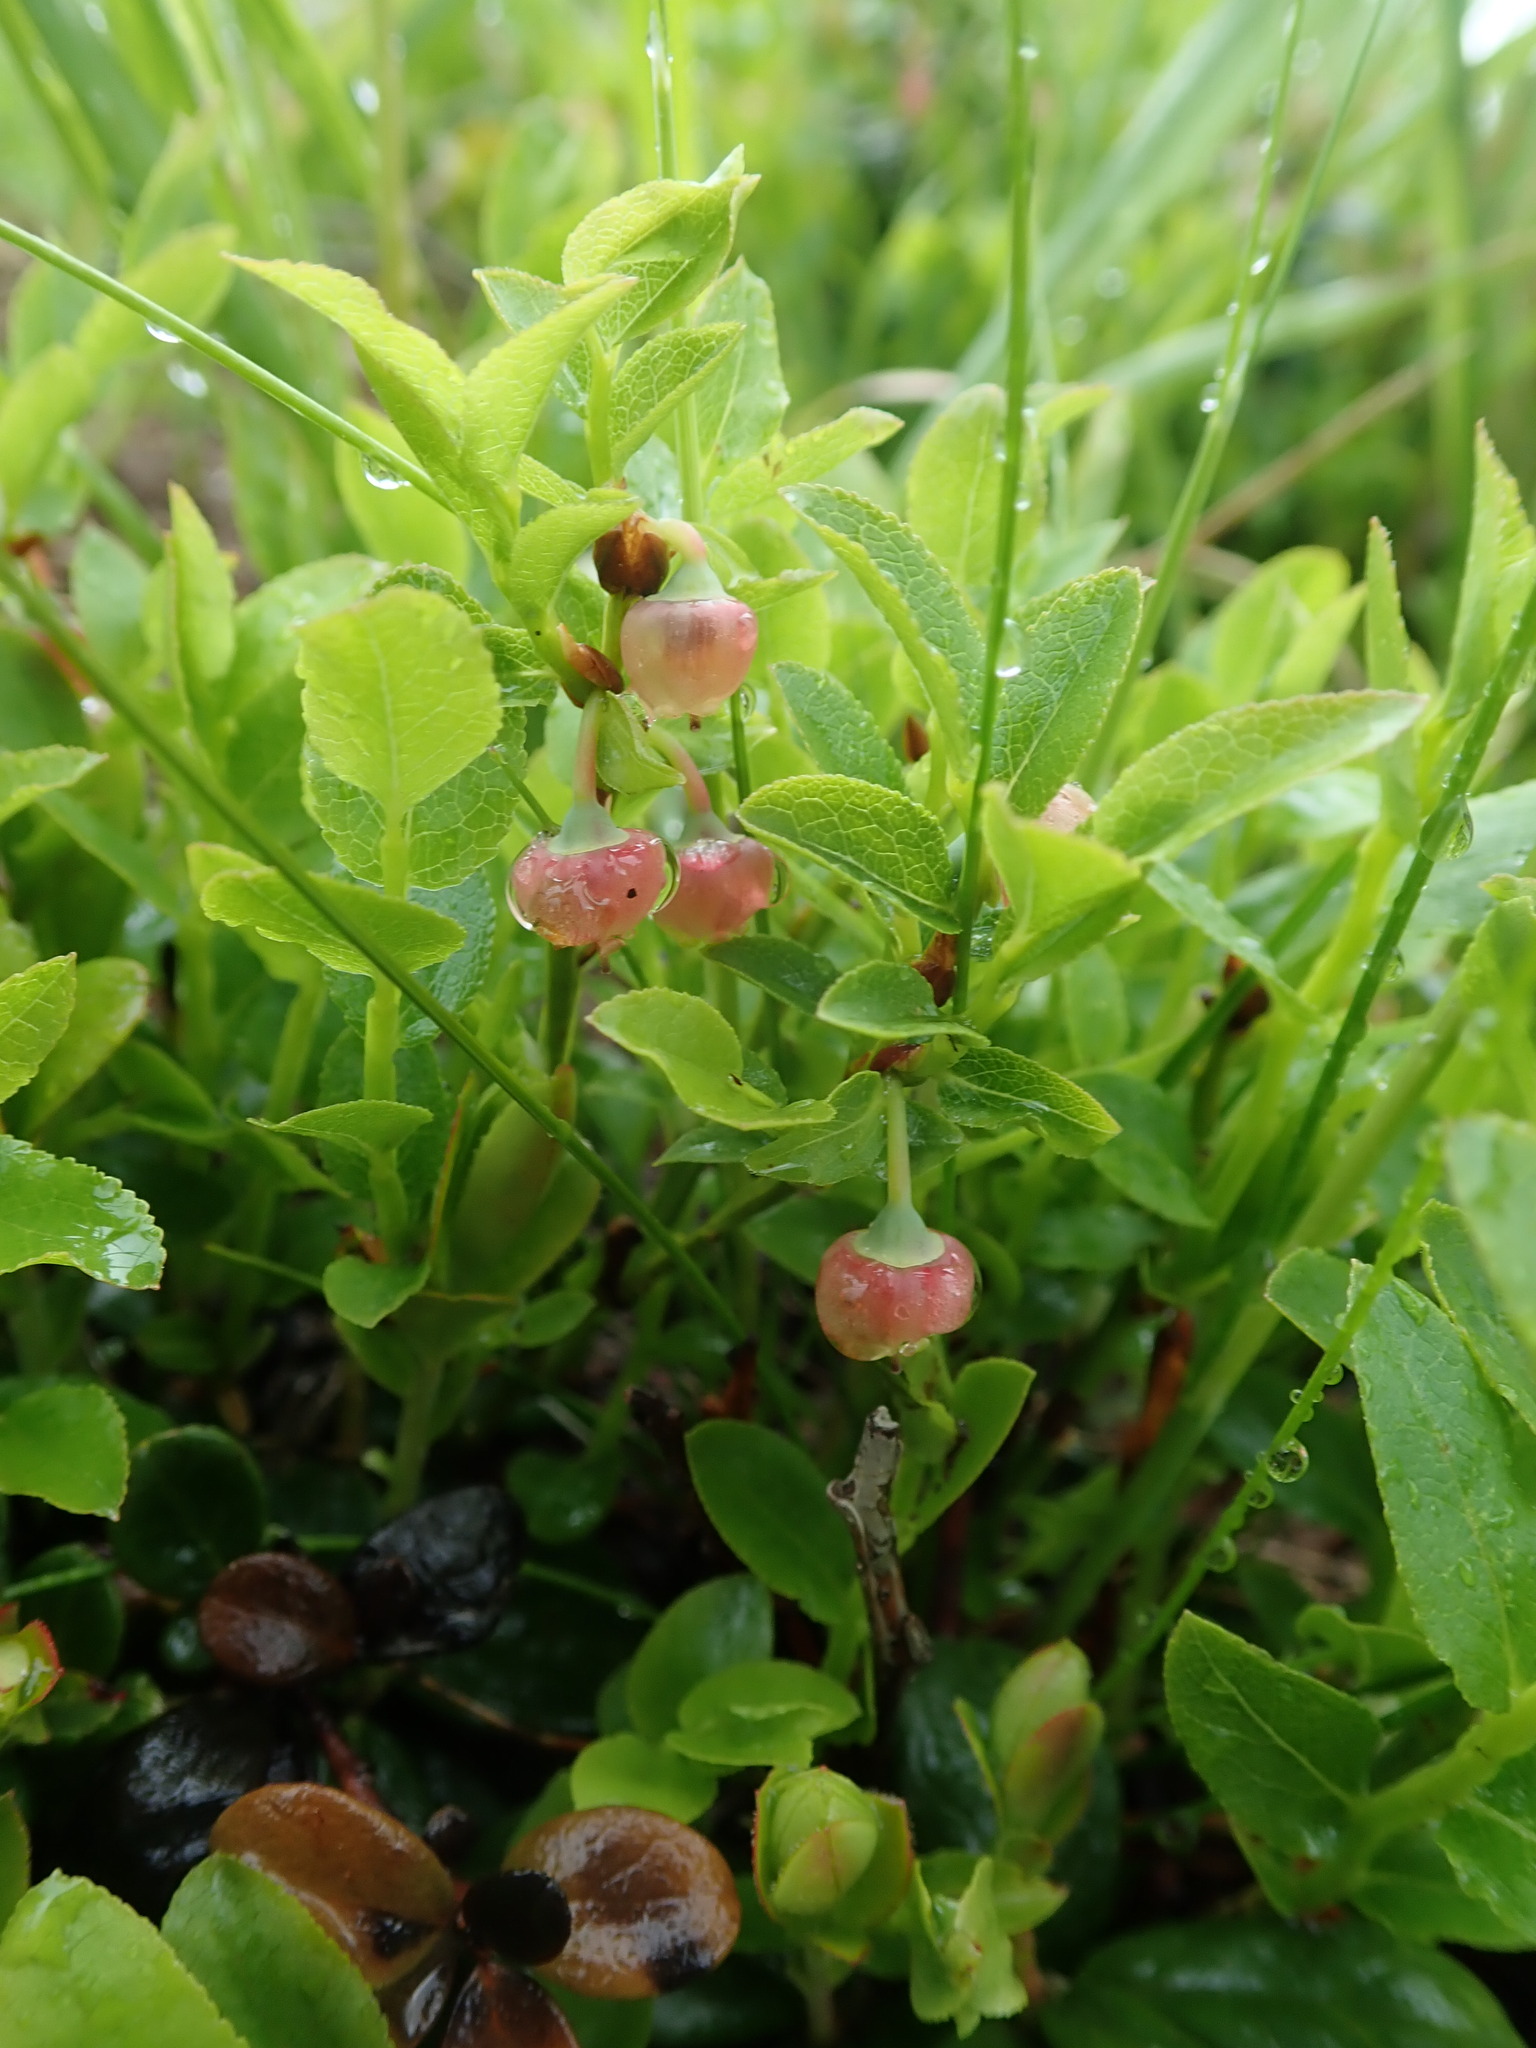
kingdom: Plantae
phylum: Tracheophyta
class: Magnoliopsida
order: Ericales
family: Ericaceae
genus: Vaccinium
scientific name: Vaccinium myrtillus
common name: Bilberry
